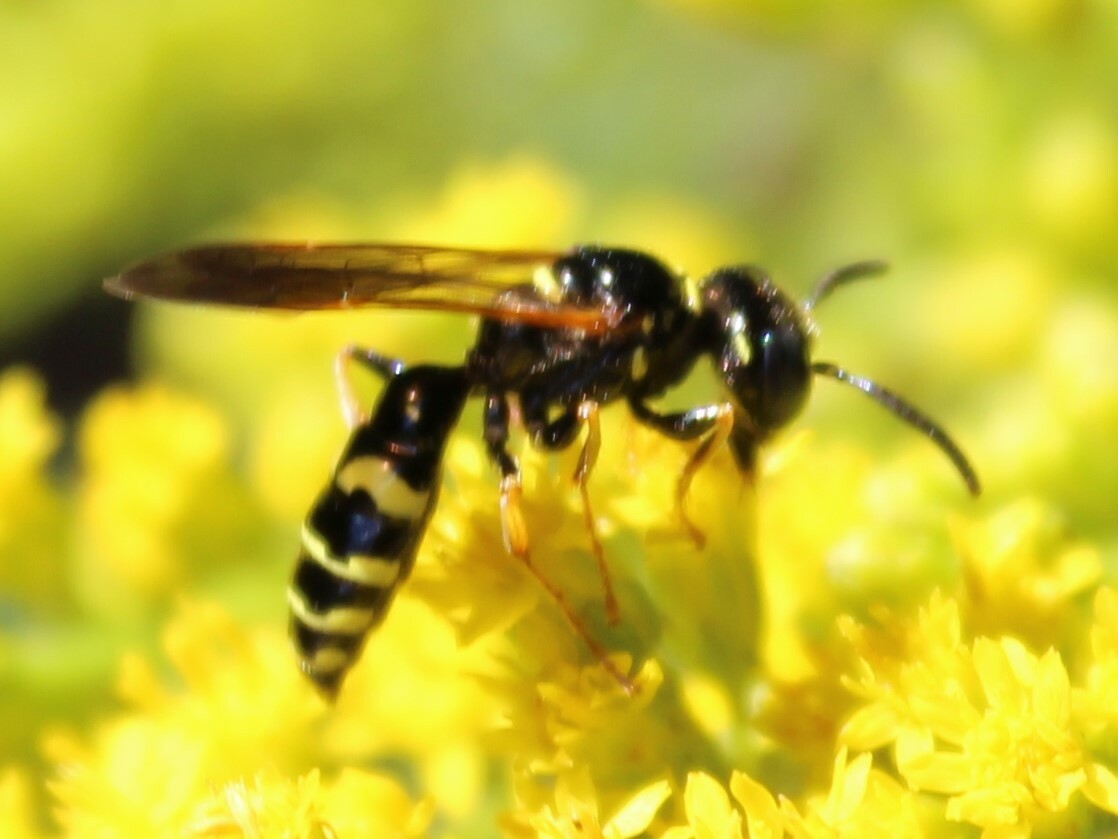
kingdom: Animalia
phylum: Arthropoda
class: Insecta
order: Hymenoptera
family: Crabronidae
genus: Philanthus
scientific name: Philanthus bilunatus
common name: Two moons beewolf
